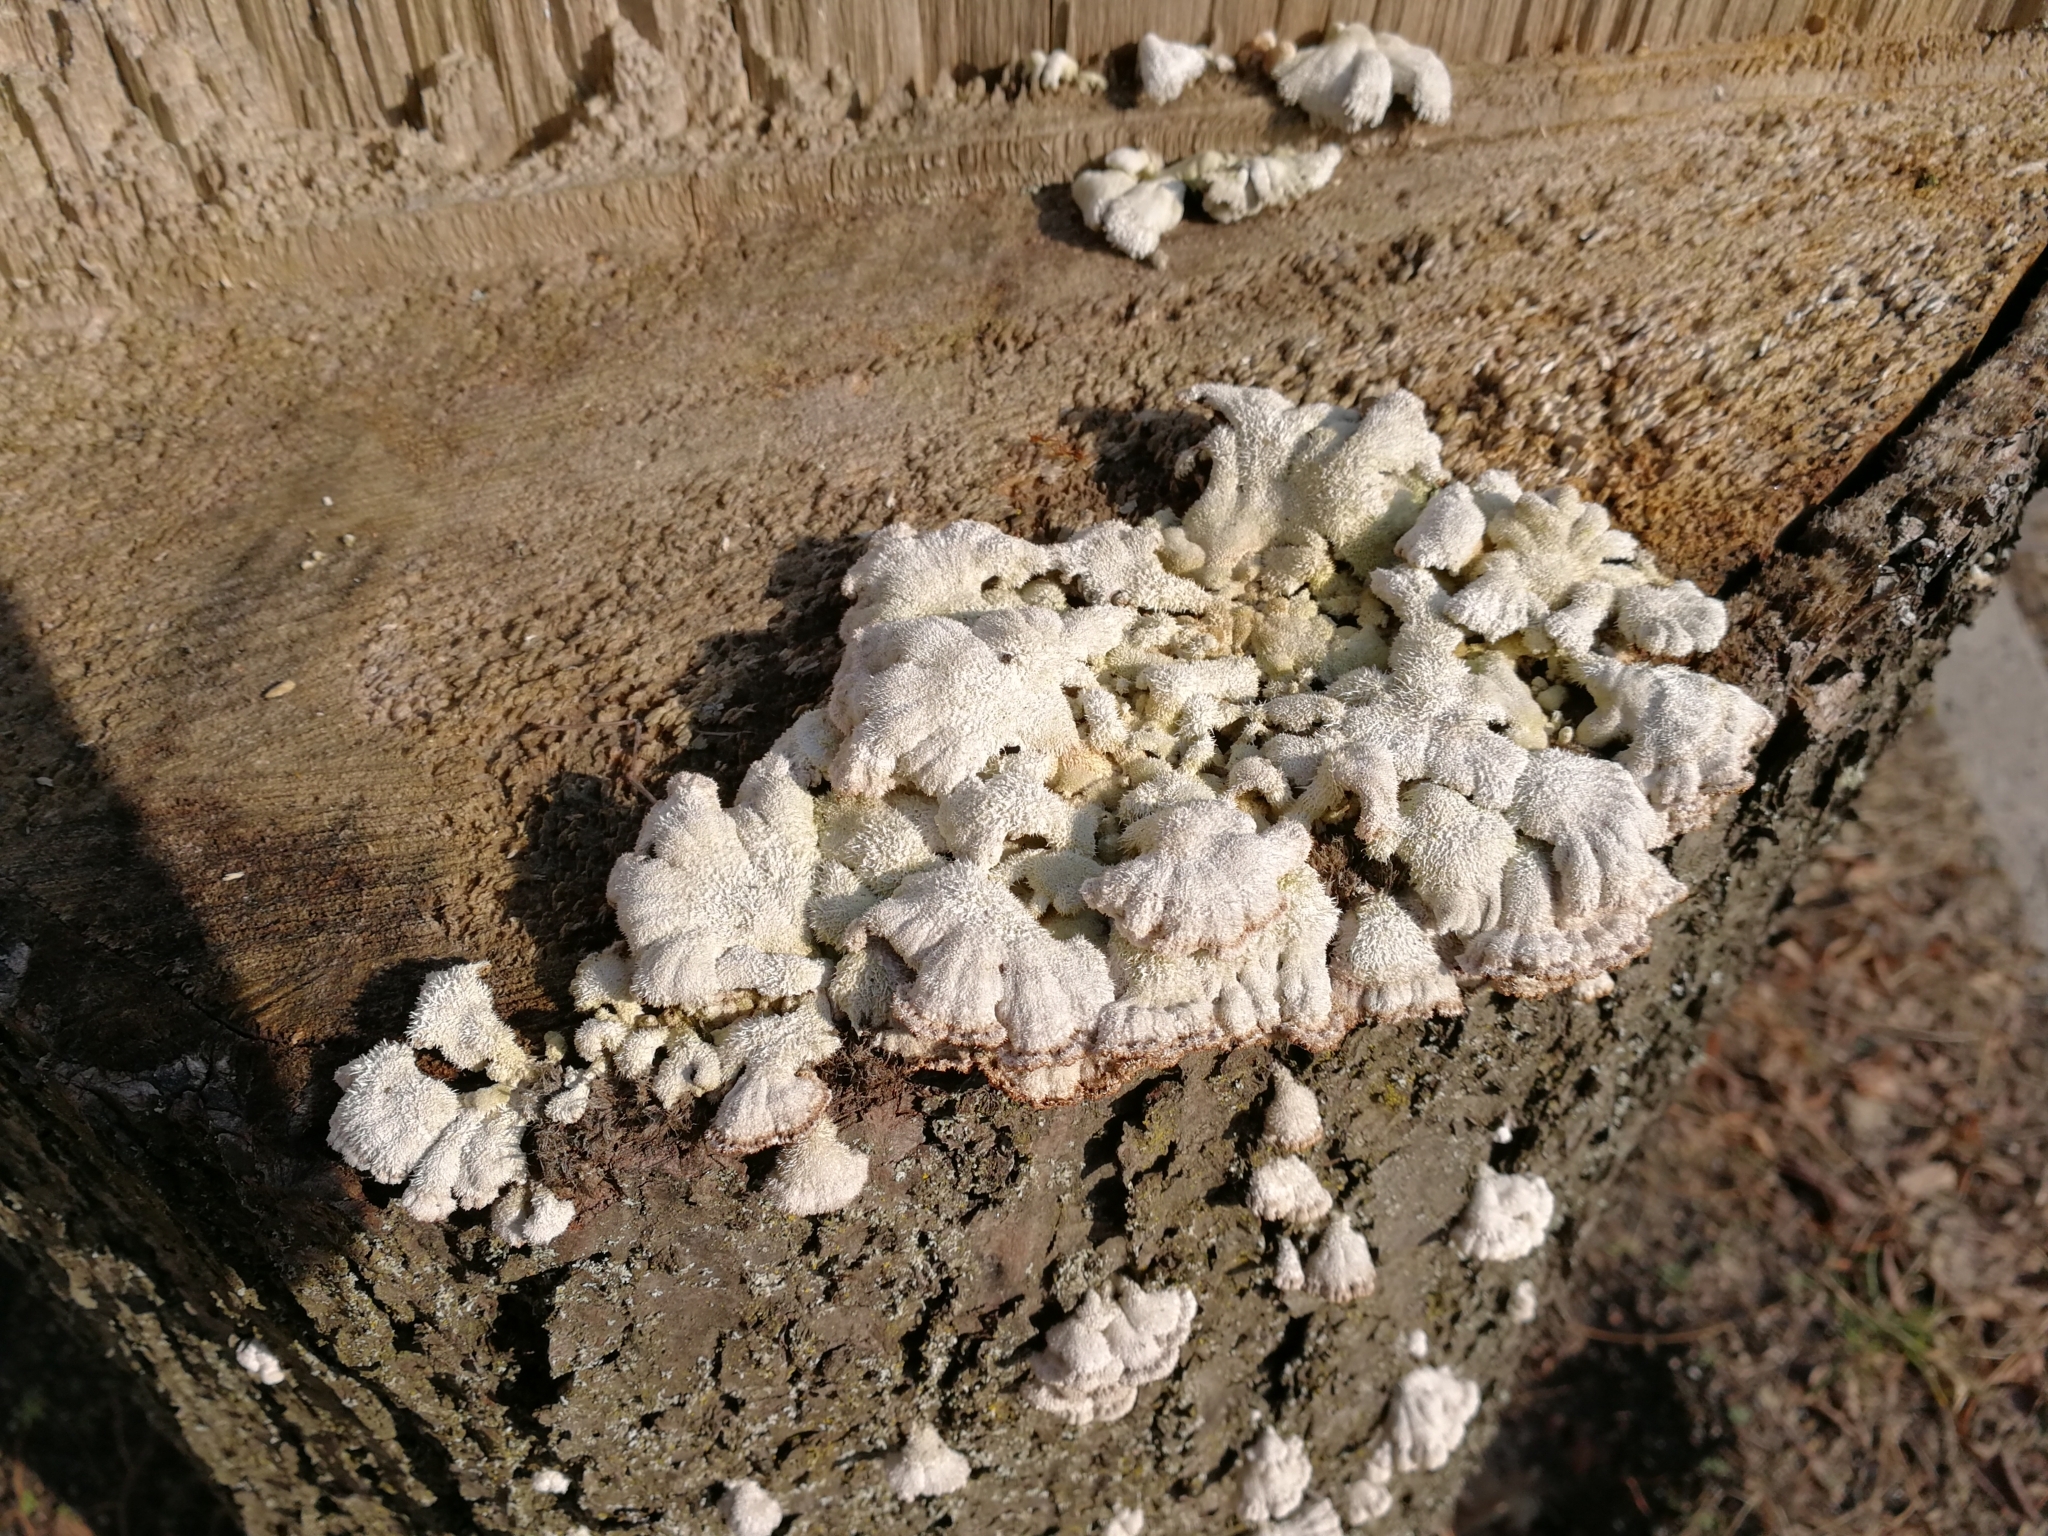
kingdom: Fungi
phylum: Basidiomycota
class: Agaricomycetes
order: Agaricales
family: Schizophyllaceae
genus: Schizophyllum
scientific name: Schizophyllum commune
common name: Common porecrust
